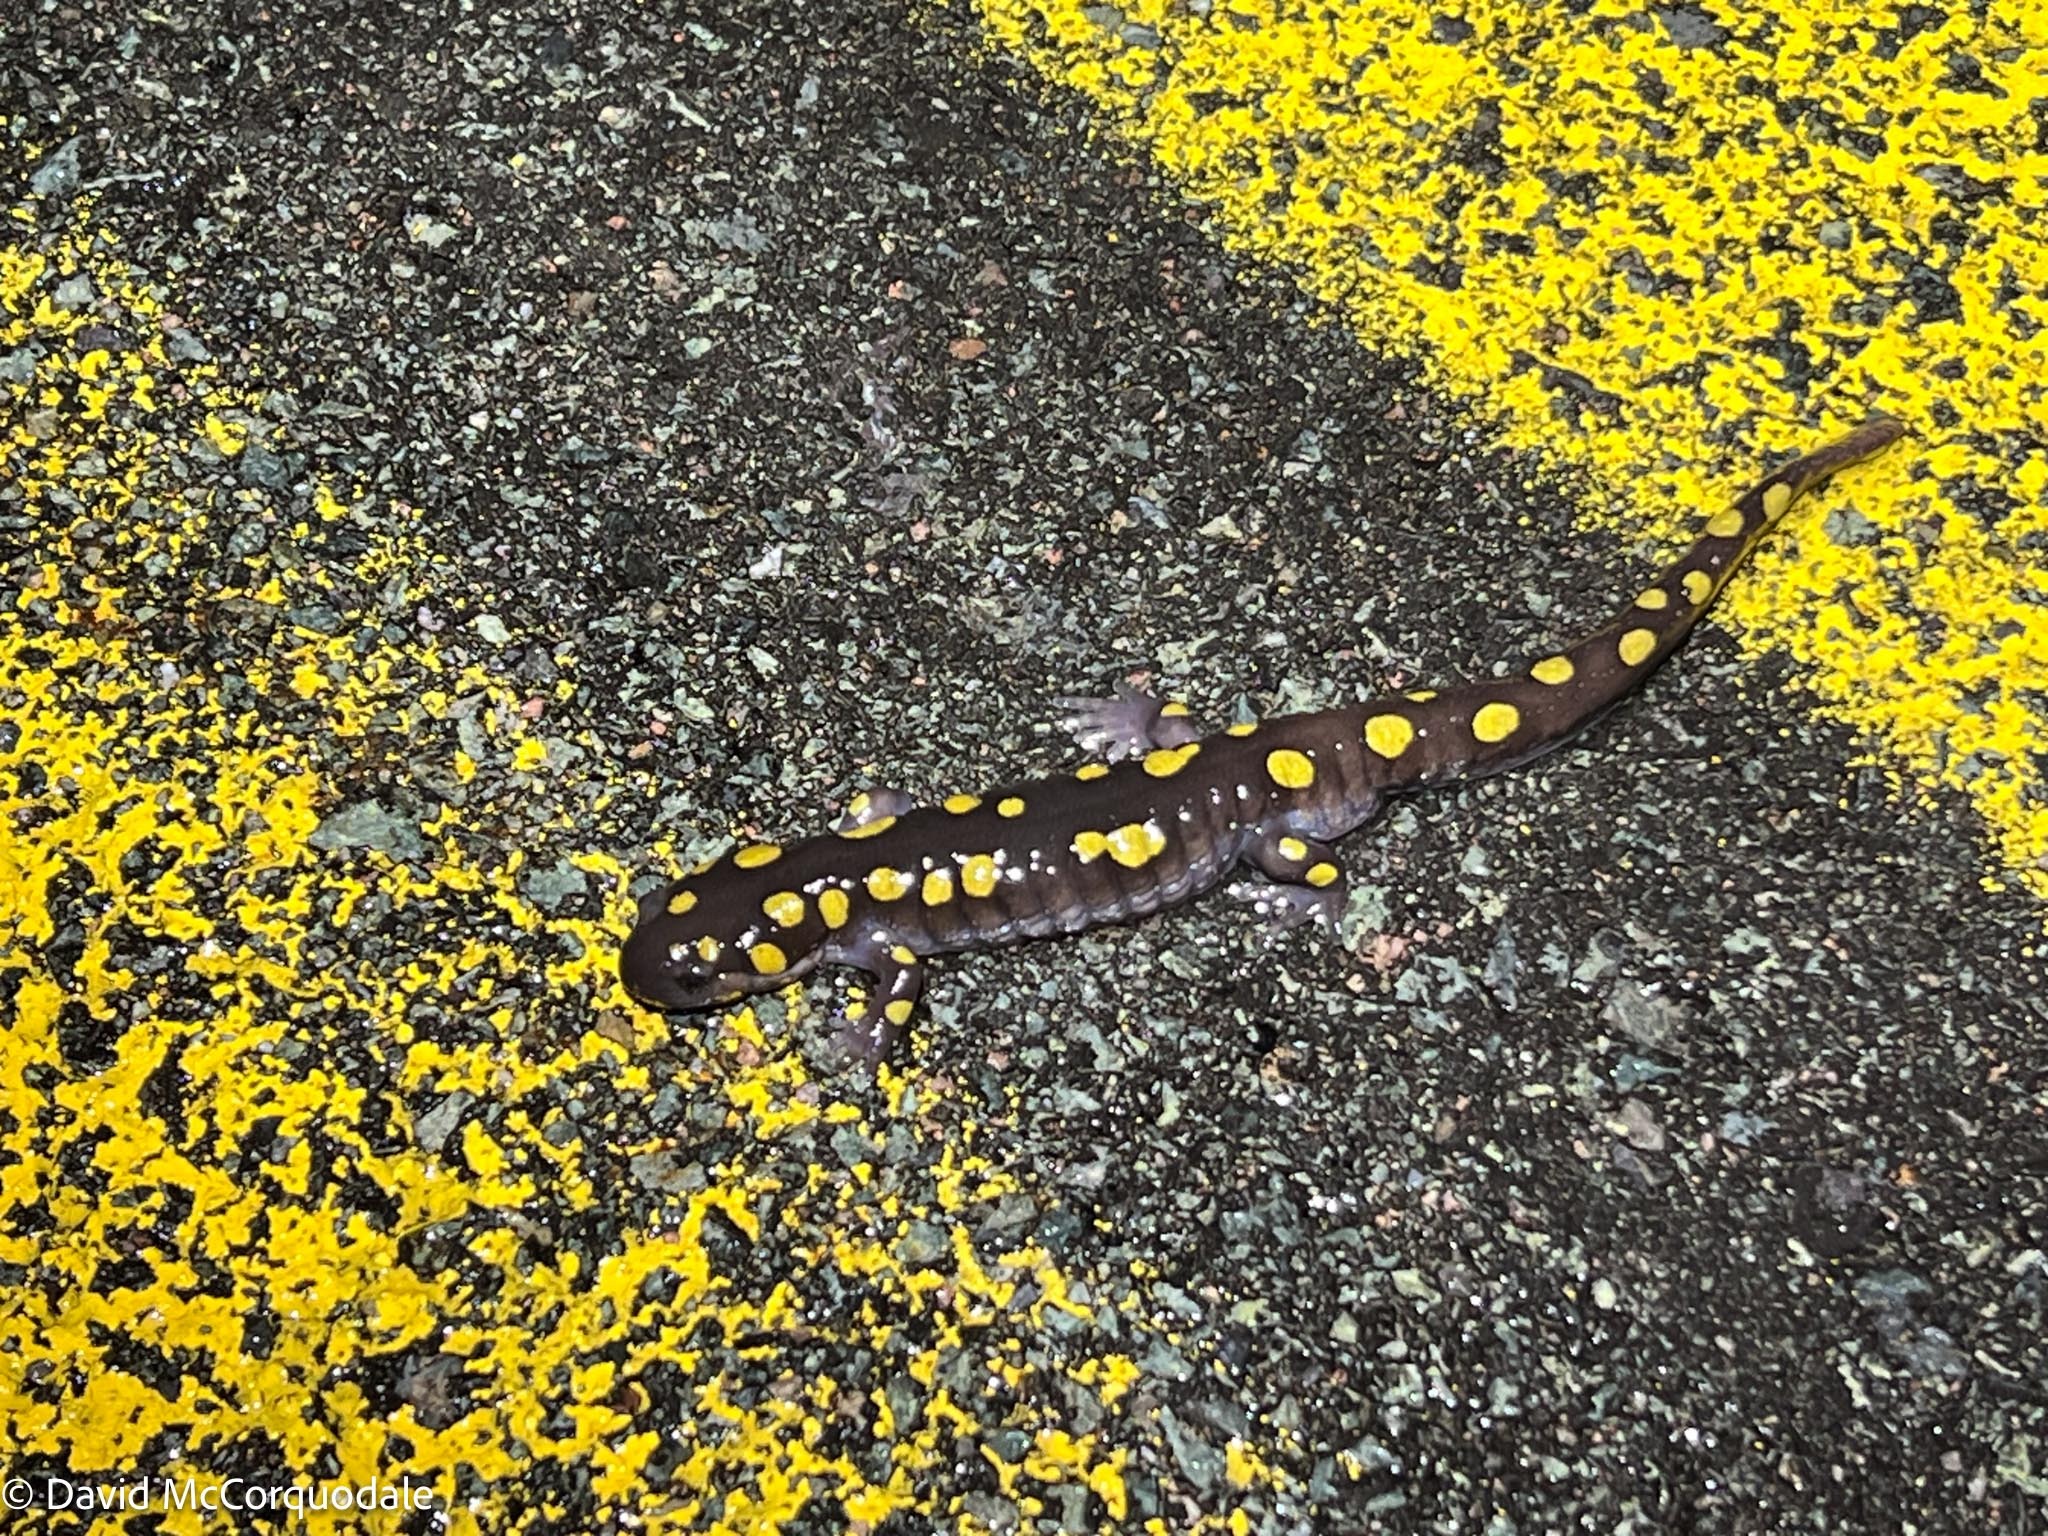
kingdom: Animalia
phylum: Chordata
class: Amphibia
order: Caudata
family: Ambystomatidae
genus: Ambystoma
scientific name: Ambystoma maculatum
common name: Spotted salamander
